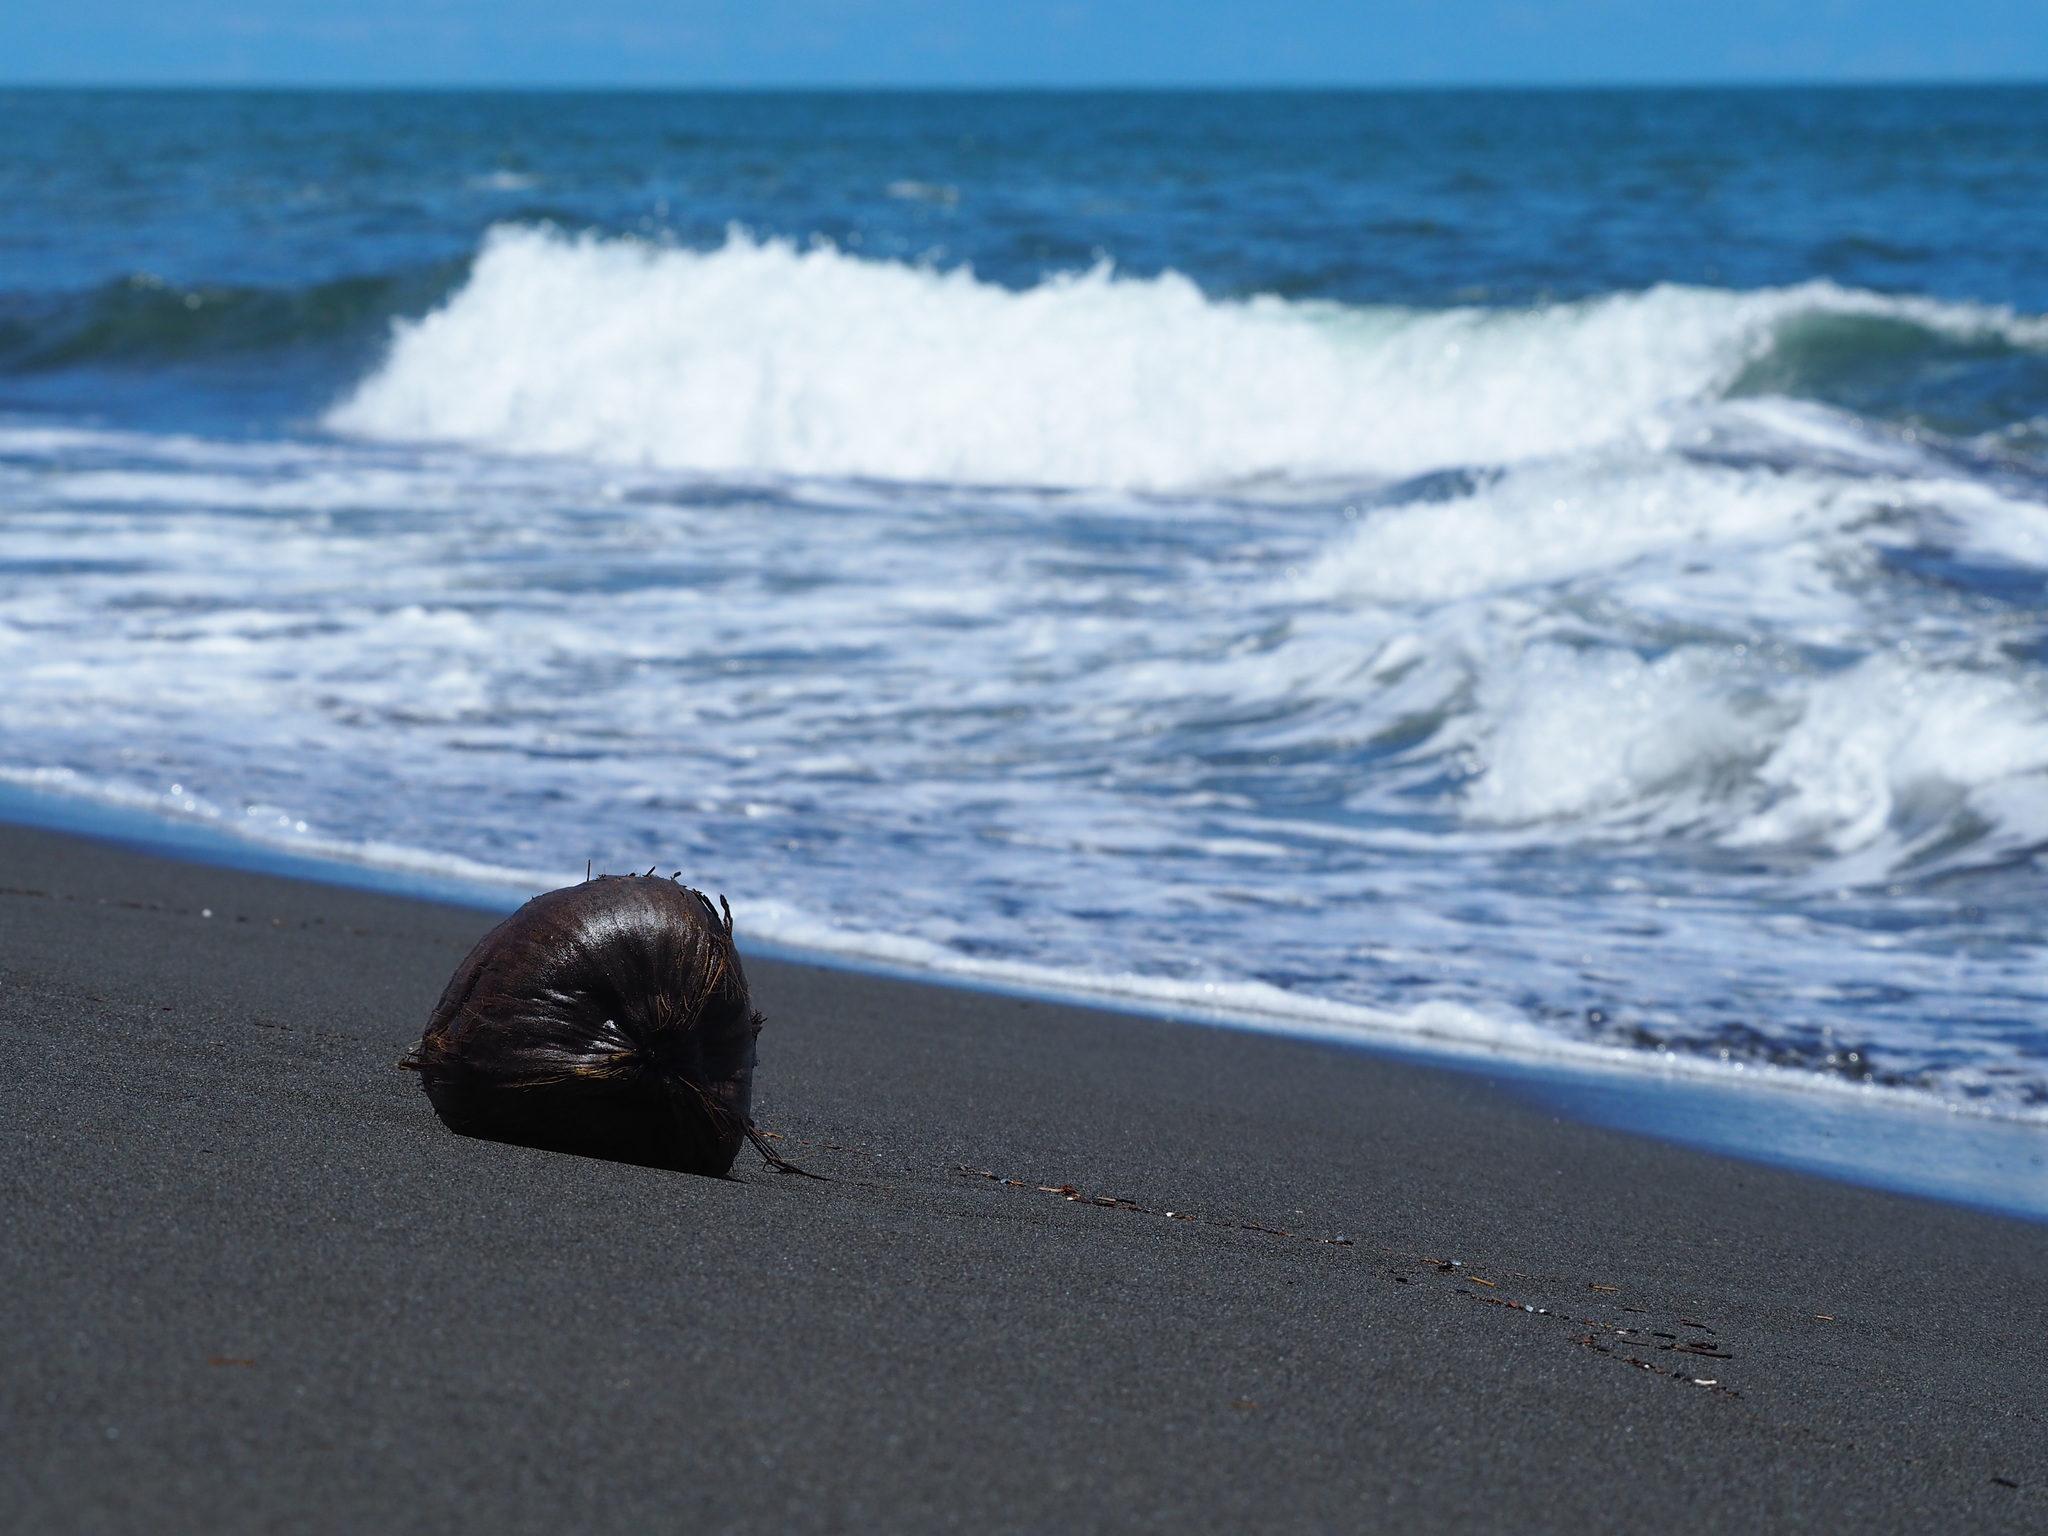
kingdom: Plantae
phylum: Tracheophyta
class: Liliopsida
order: Arecales
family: Arecaceae
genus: Cocos
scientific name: Cocos nucifera
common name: Coconut palm
